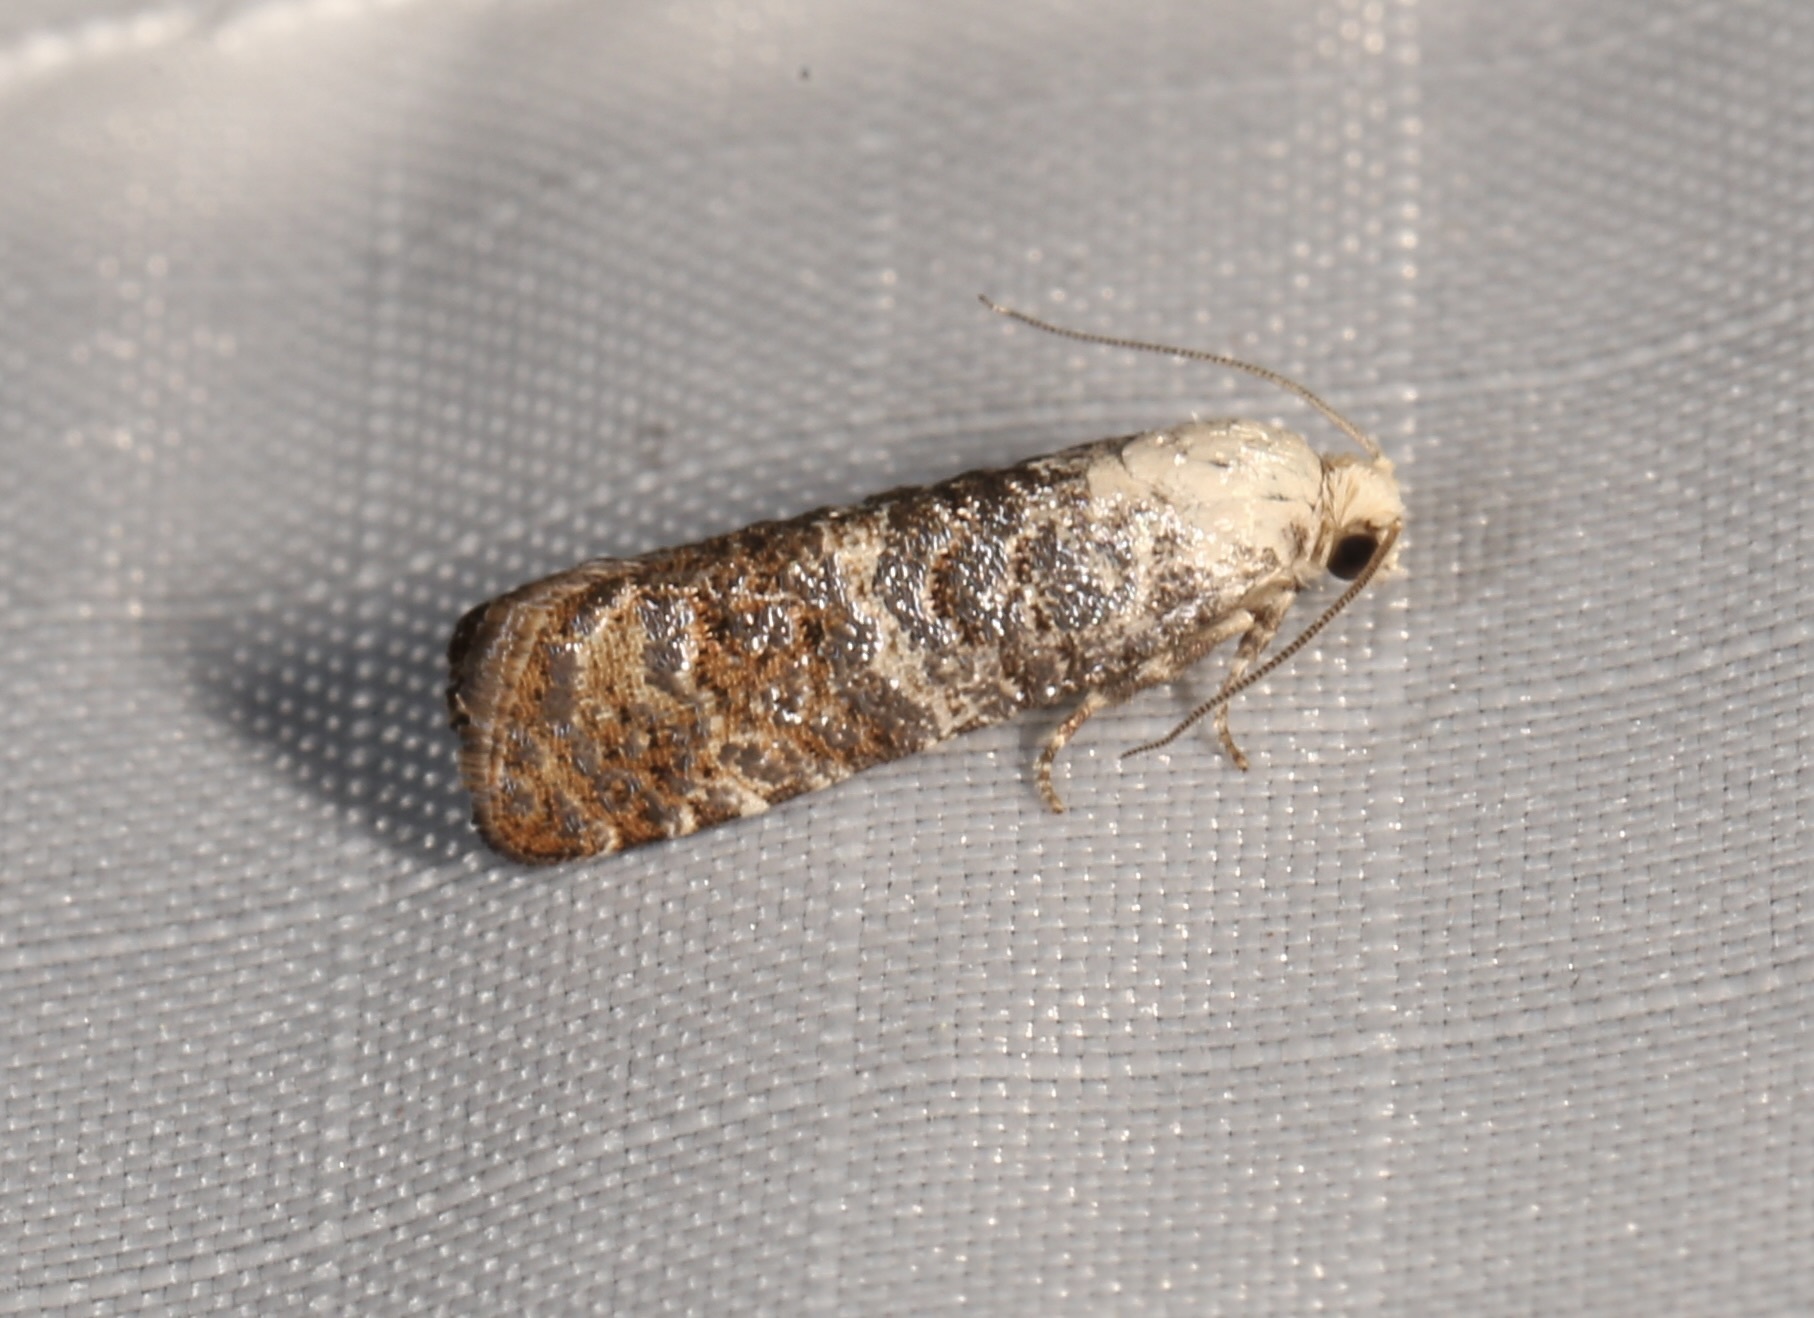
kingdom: Animalia
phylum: Arthropoda
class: Insecta
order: Lepidoptera
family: Tortricidae
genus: Retinia
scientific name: Retinia metallica
